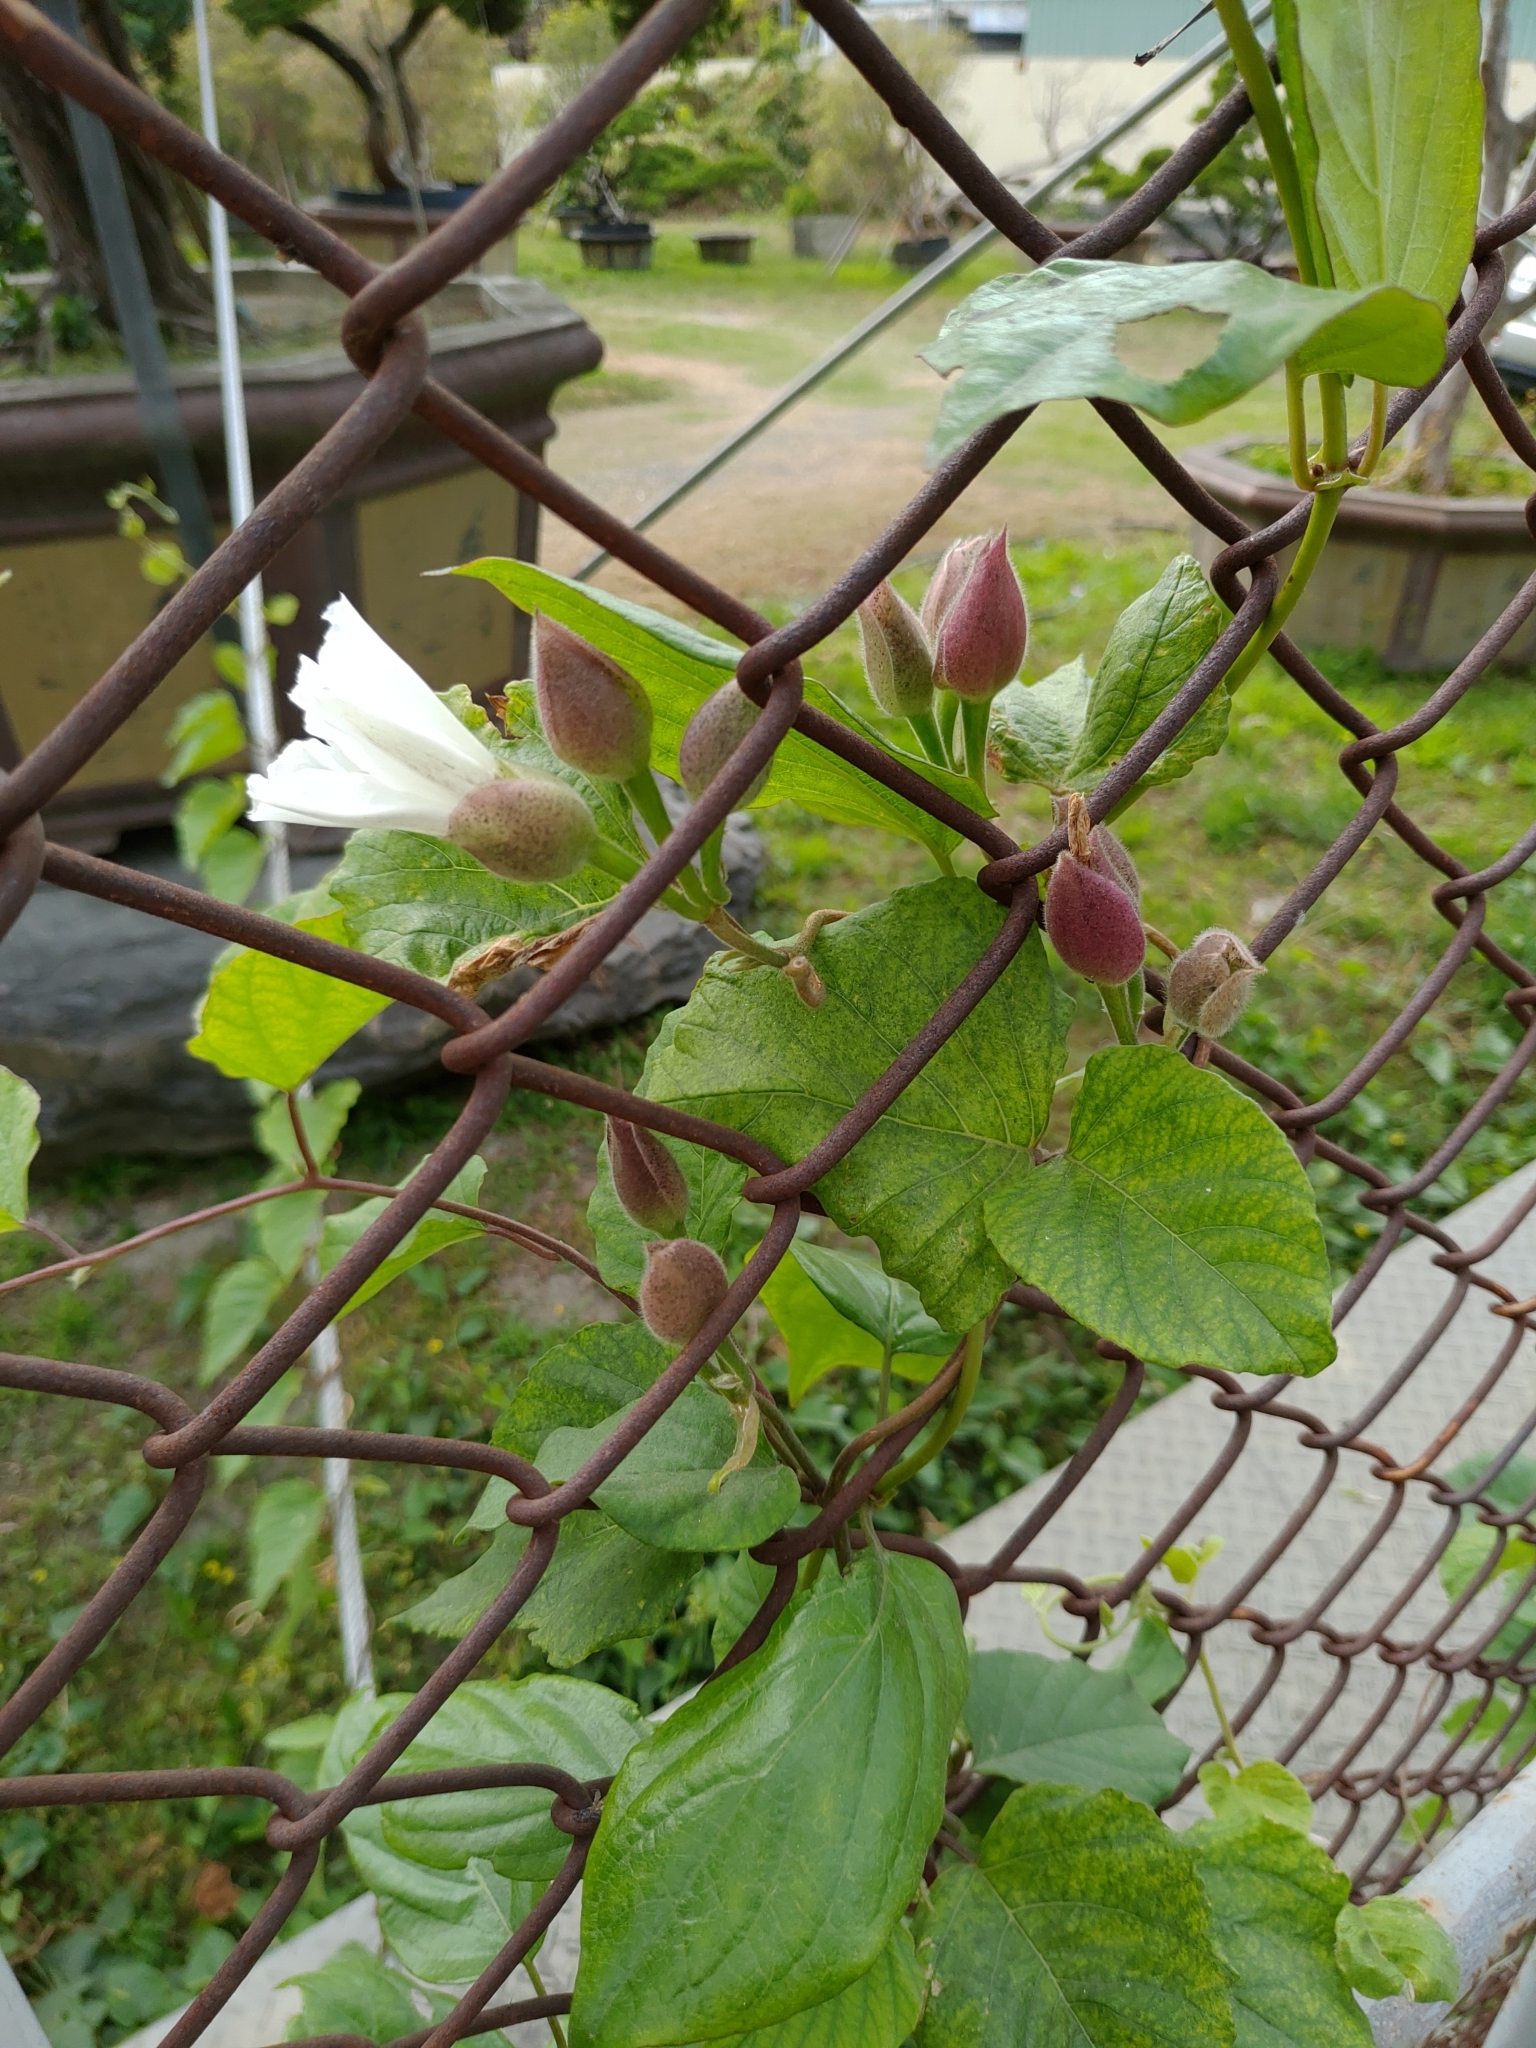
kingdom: Plantae
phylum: Tracheophyta
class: Magnoliopsida
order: Solanales
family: Convolvulaceae
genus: Operculina
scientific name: Operculina turpethum
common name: Transparent wood-rose
